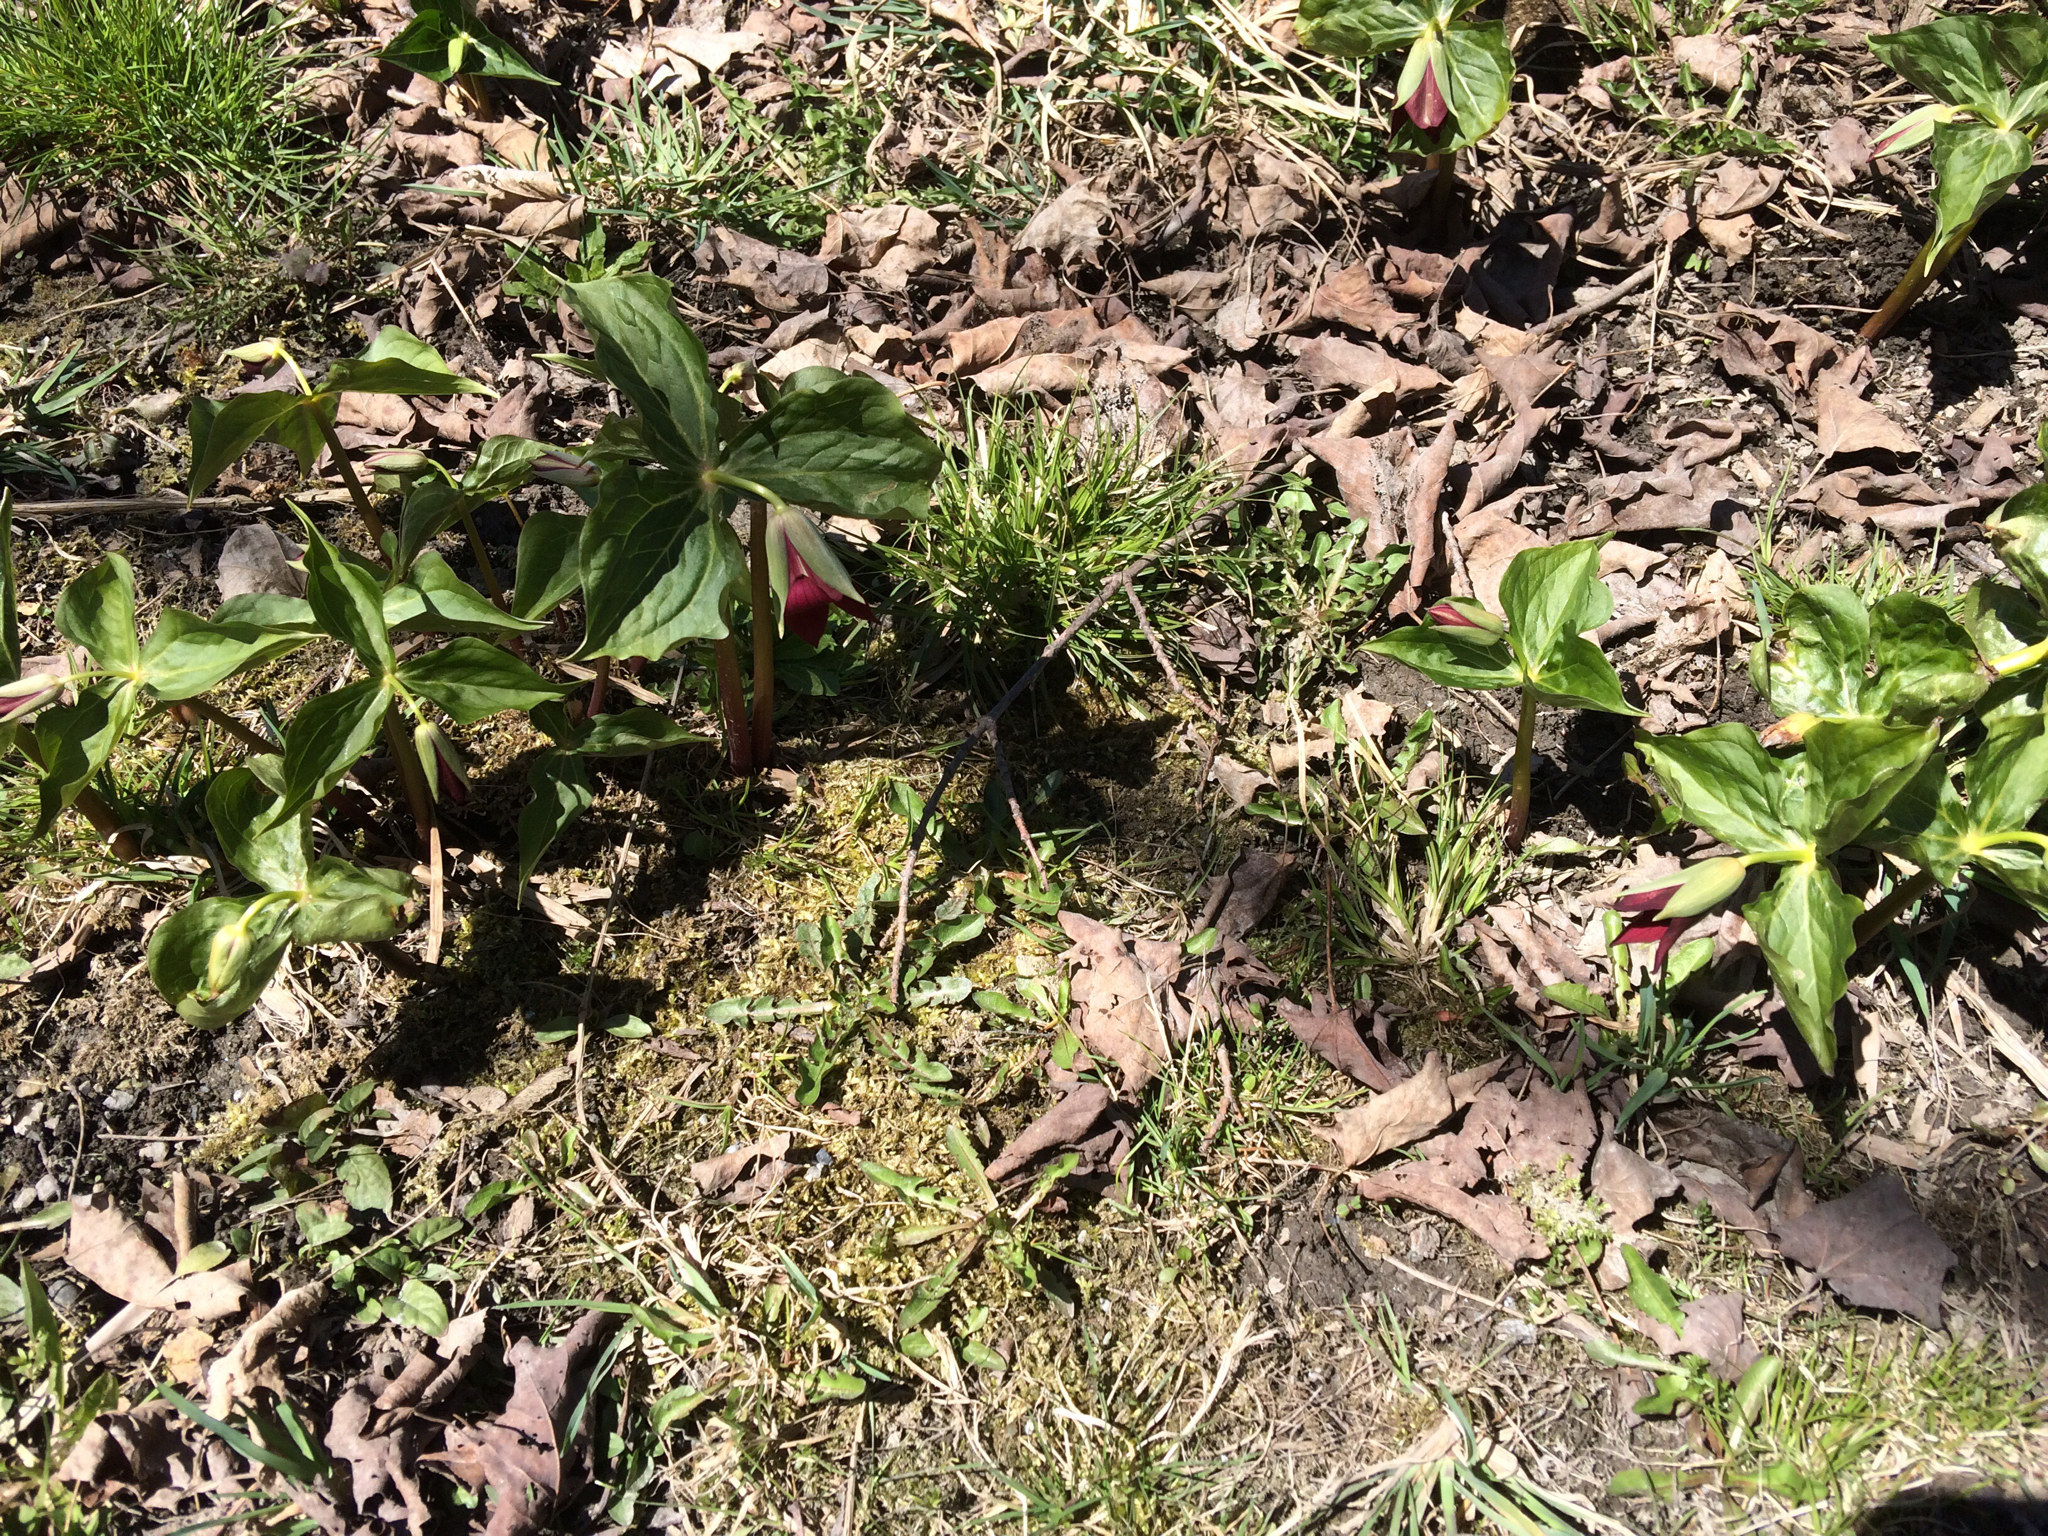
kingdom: Plantae
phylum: Tracheophyta
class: Liliopsida
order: Liliales
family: Melanthiaceae
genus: Trillium
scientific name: Trillium erectum
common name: Purple trillium
